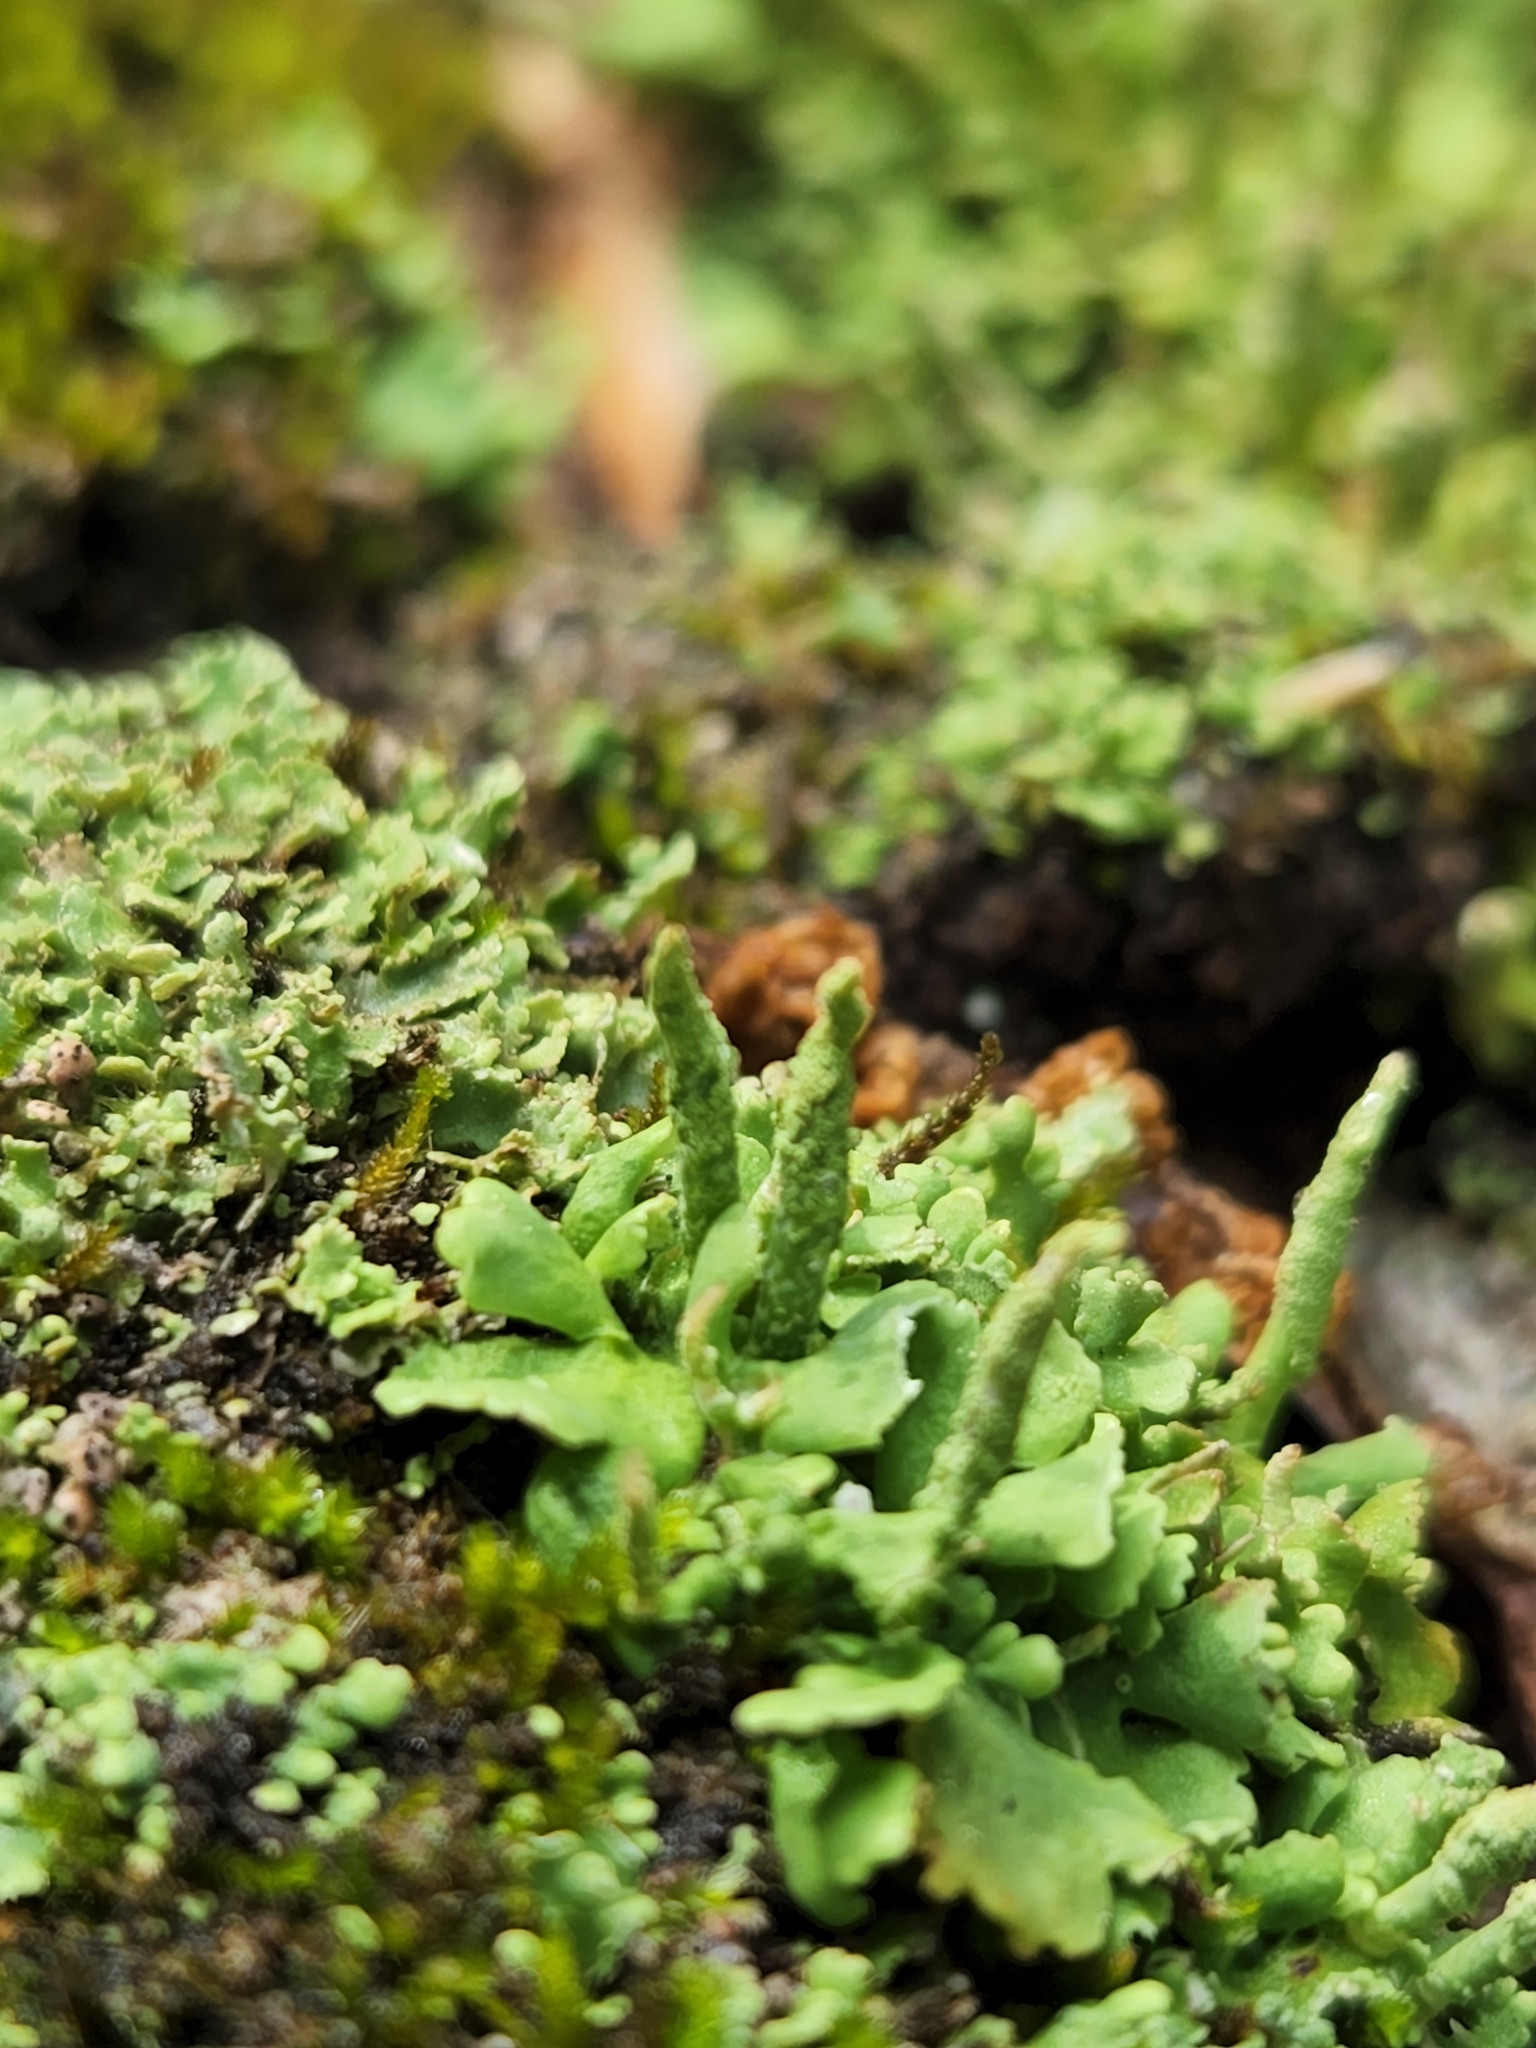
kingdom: Fungi
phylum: Ascomycota
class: Lecanoromycetes
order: Lecanorales
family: Cladoniaceae
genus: Cladonia
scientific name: Cladonia coniocraea
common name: Common powderhorn
